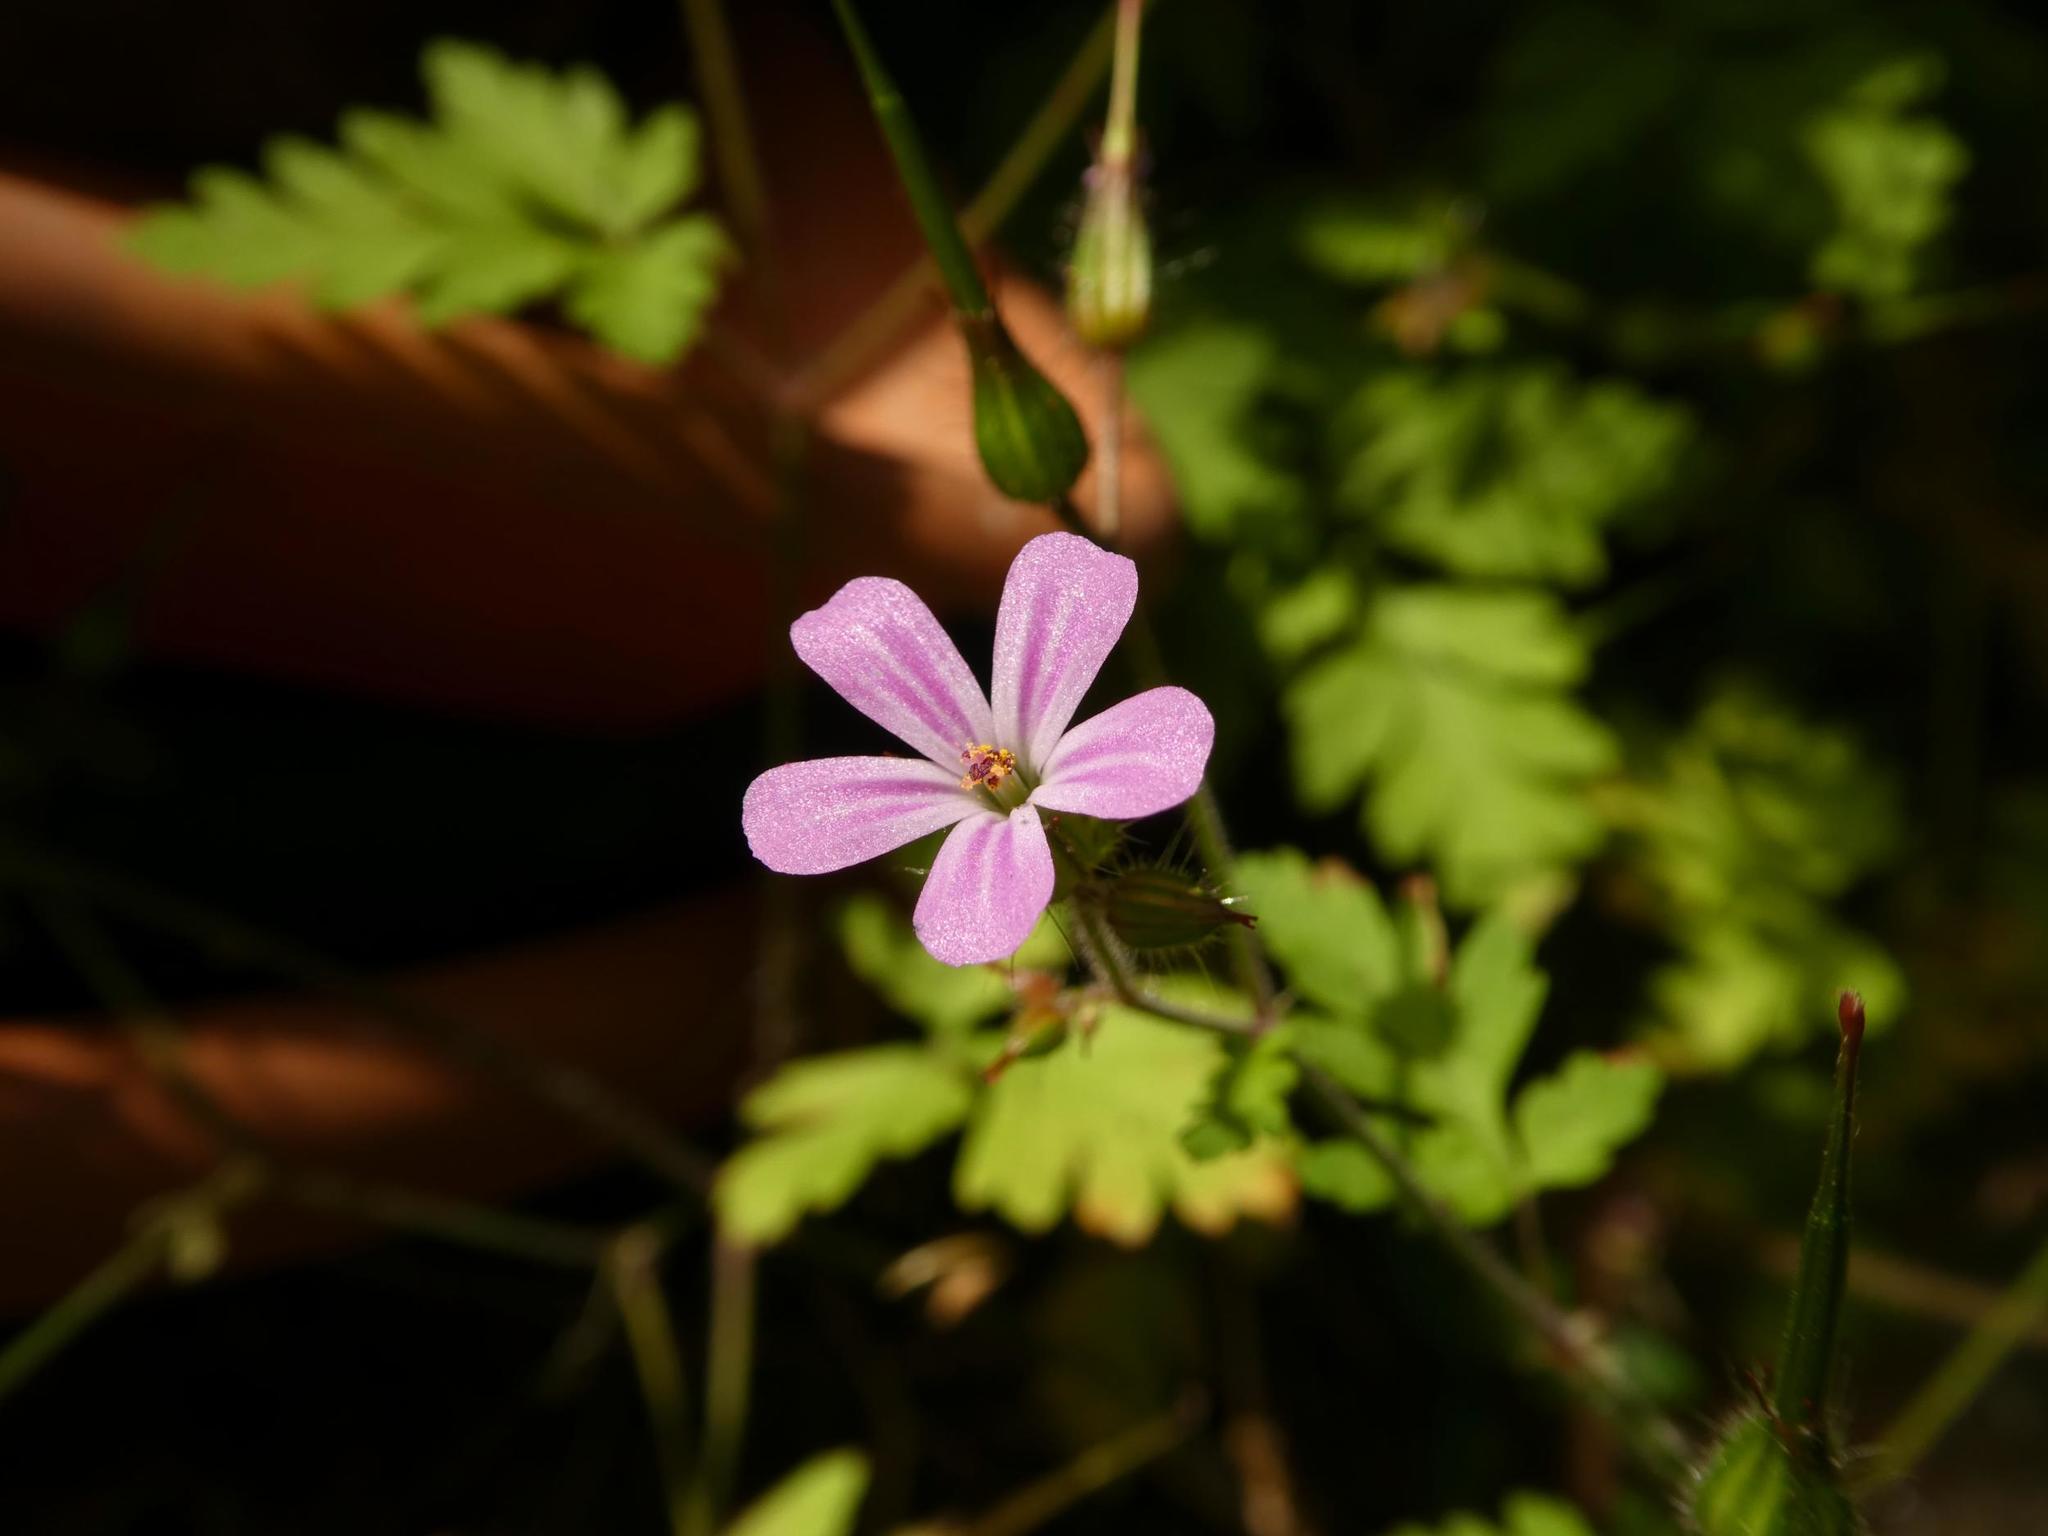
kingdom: Plantae
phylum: Tracheophyta
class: Magnoliopsida
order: Geraniales
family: Geraniaceae
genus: Geranium
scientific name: Geranium robertianum
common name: Herb-robert
